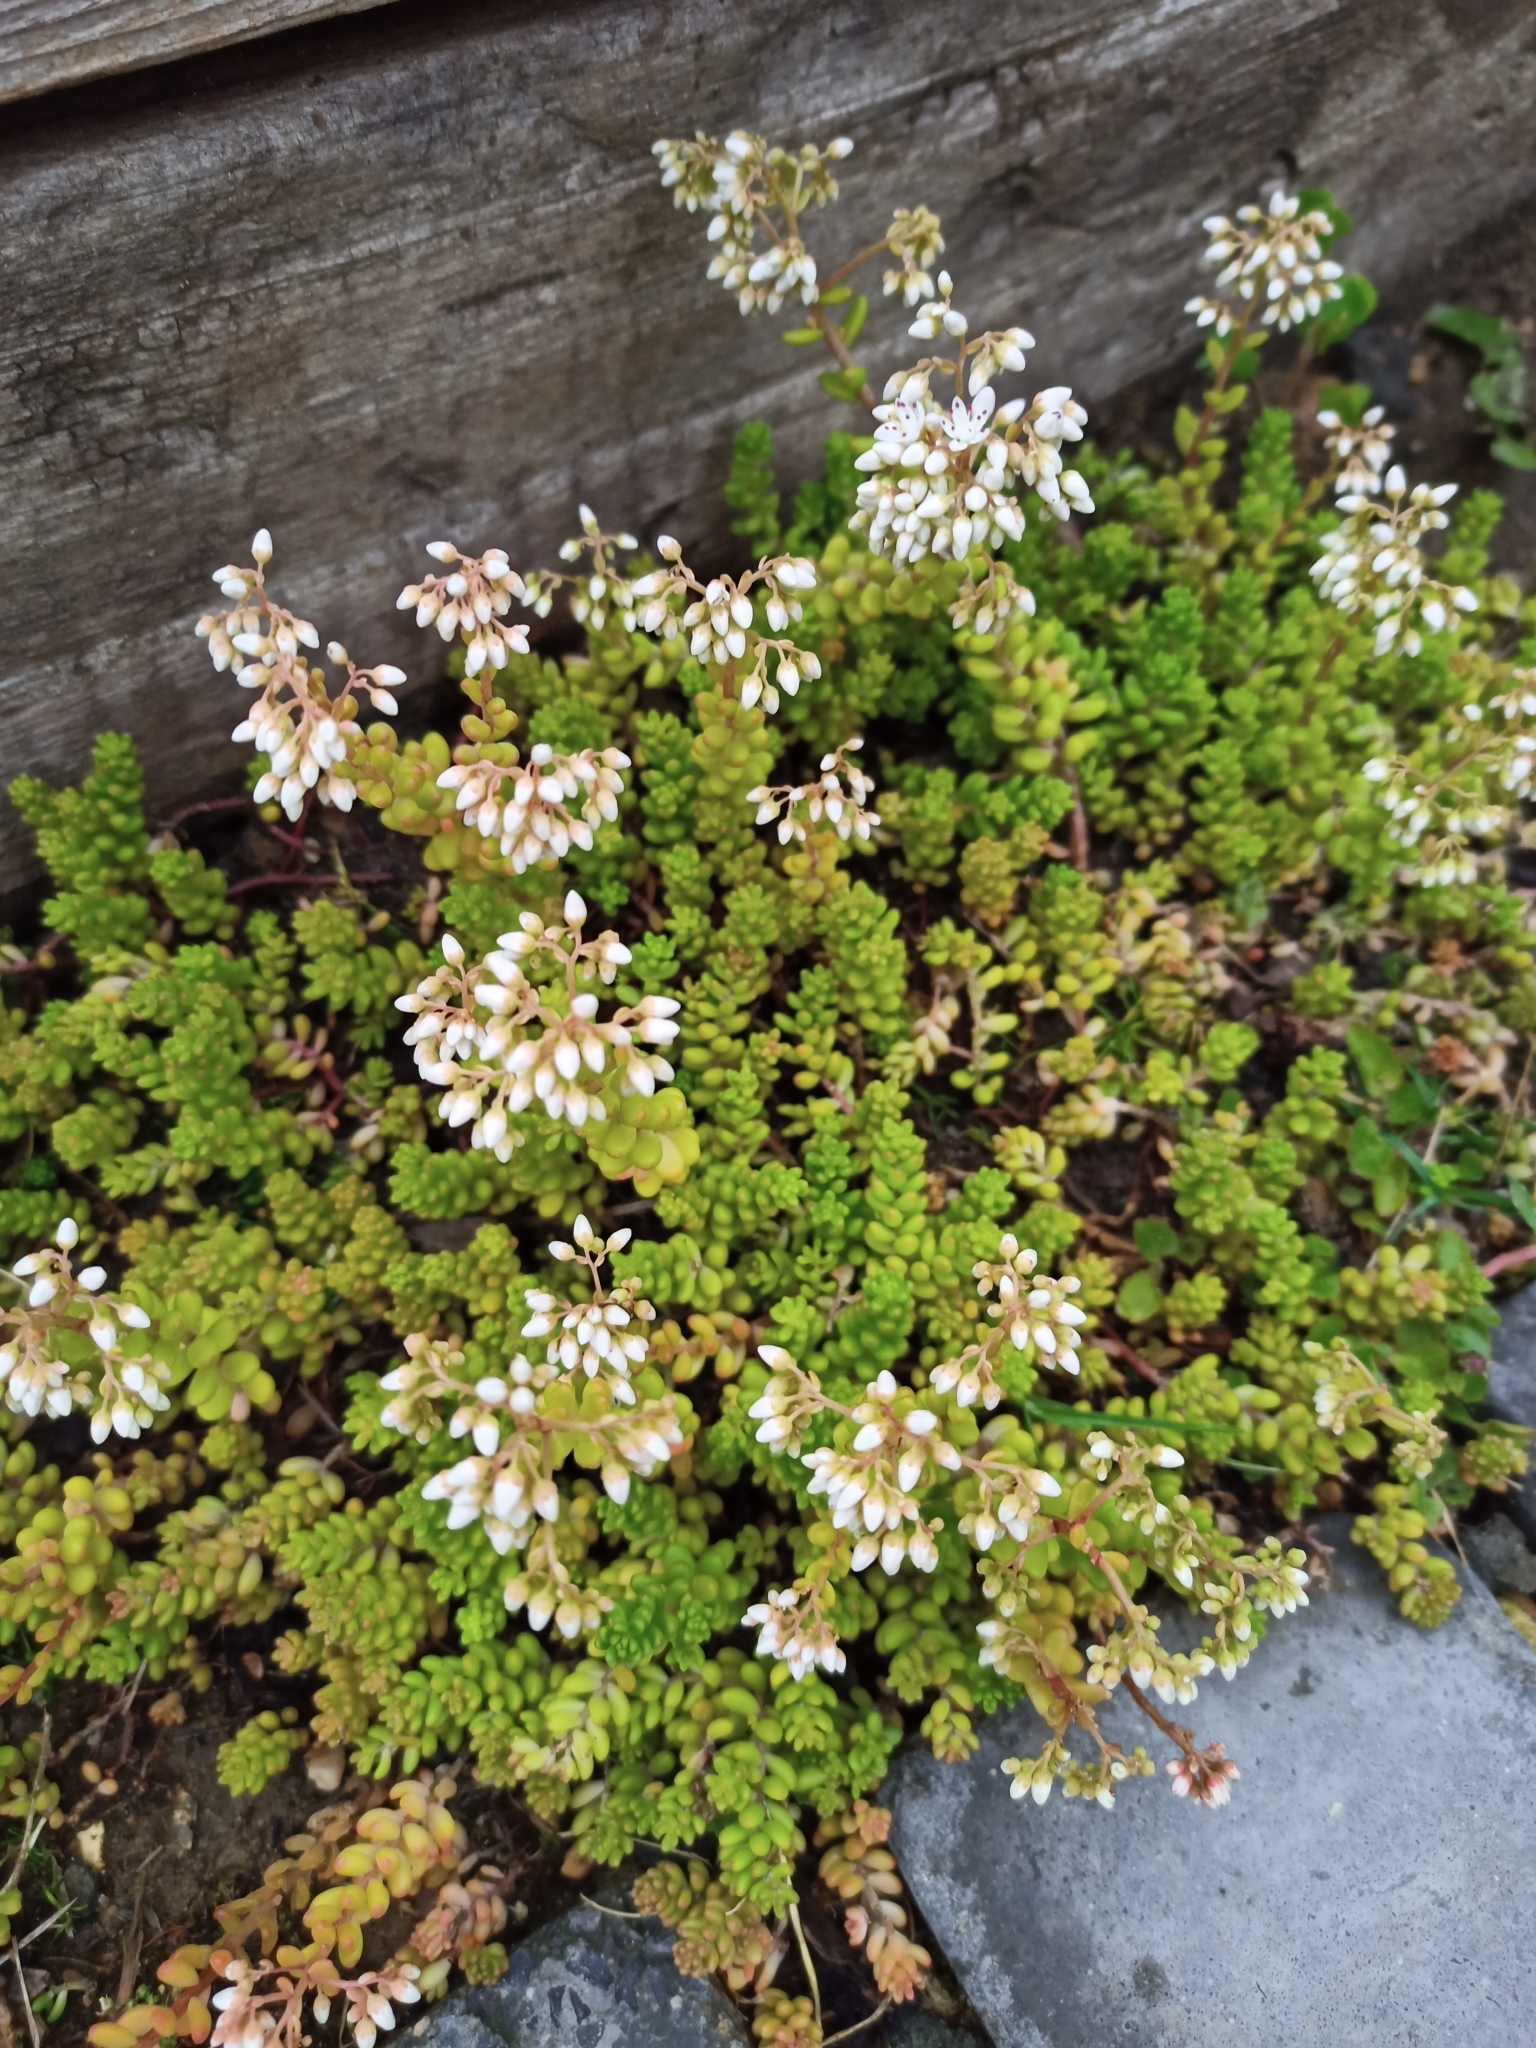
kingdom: Plantae
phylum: Tracheophyta
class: Magnoliopsida
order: Saxifragales
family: Crassulaceae
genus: Sedum
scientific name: Sedum album
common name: White stonecrop
